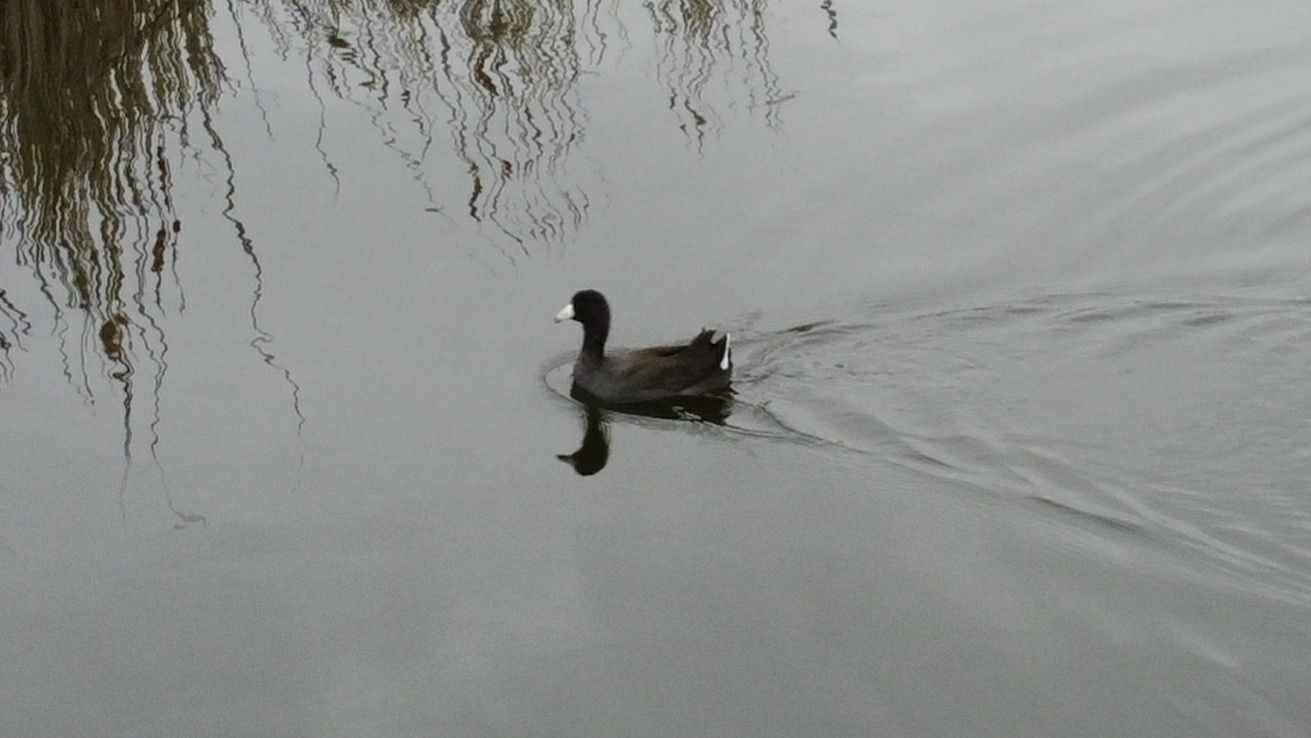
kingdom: Animalia
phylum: Chordata
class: Aves
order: Gruiformes
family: Rallidae
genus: Fulica
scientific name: Fulica americana
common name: American coot
